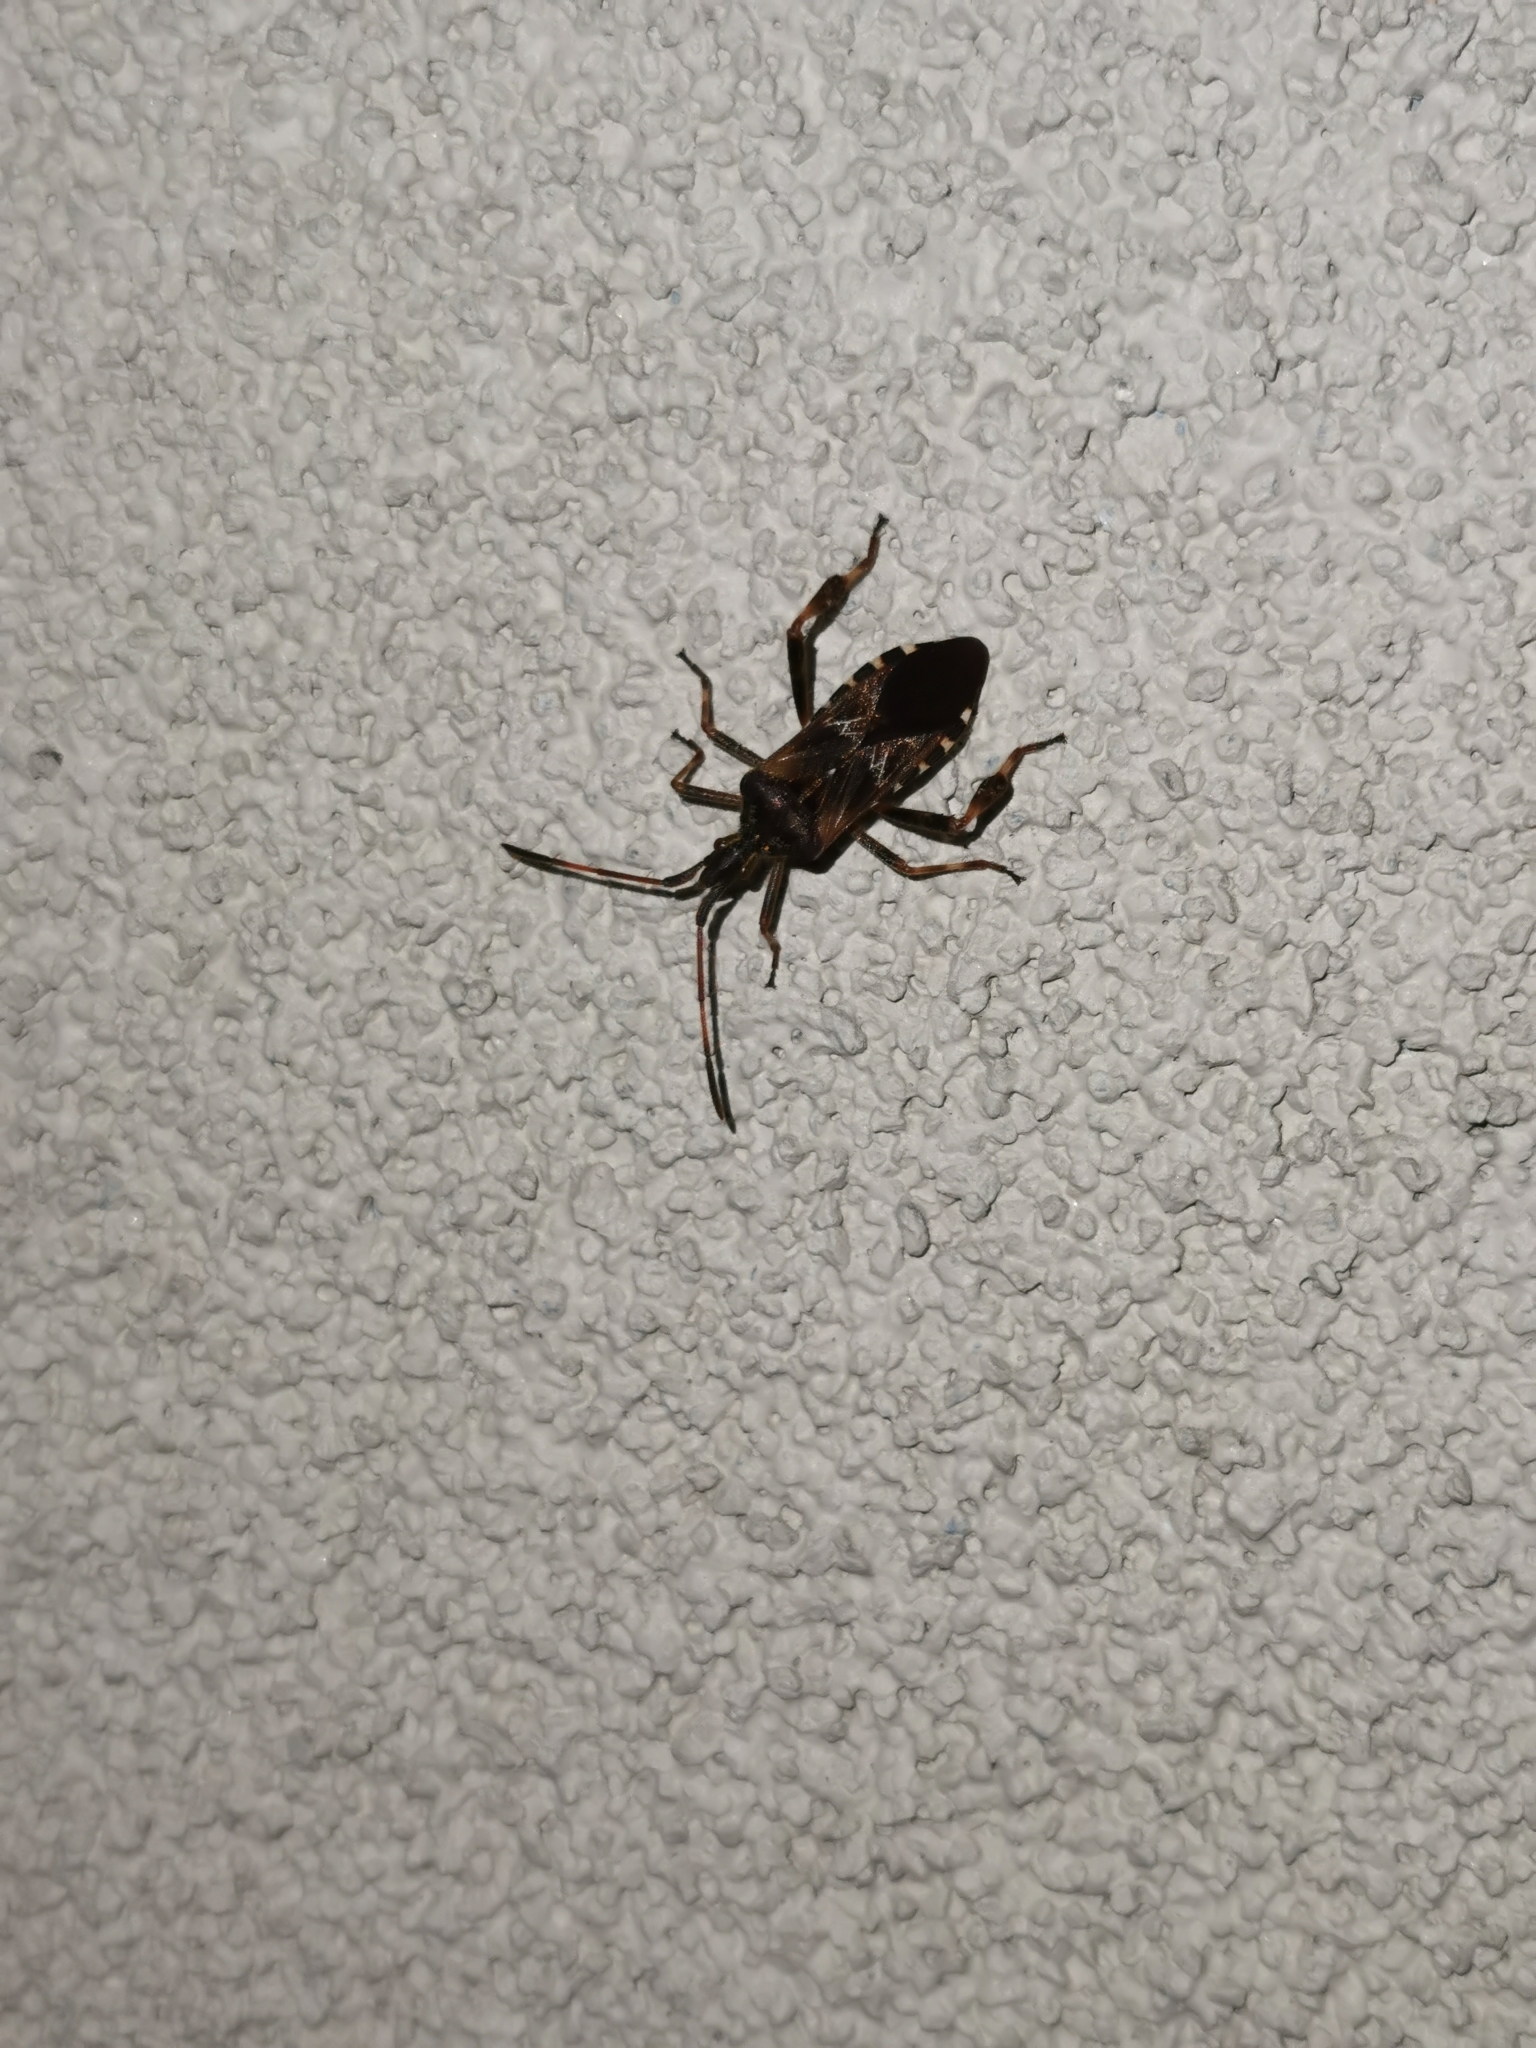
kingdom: Animalia
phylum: Arthropoda
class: Insecta
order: Hemiptera
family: Coreidae
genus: Leptoglossus
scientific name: Leptoglossus occidentalis
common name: Western conifer-seed bug
